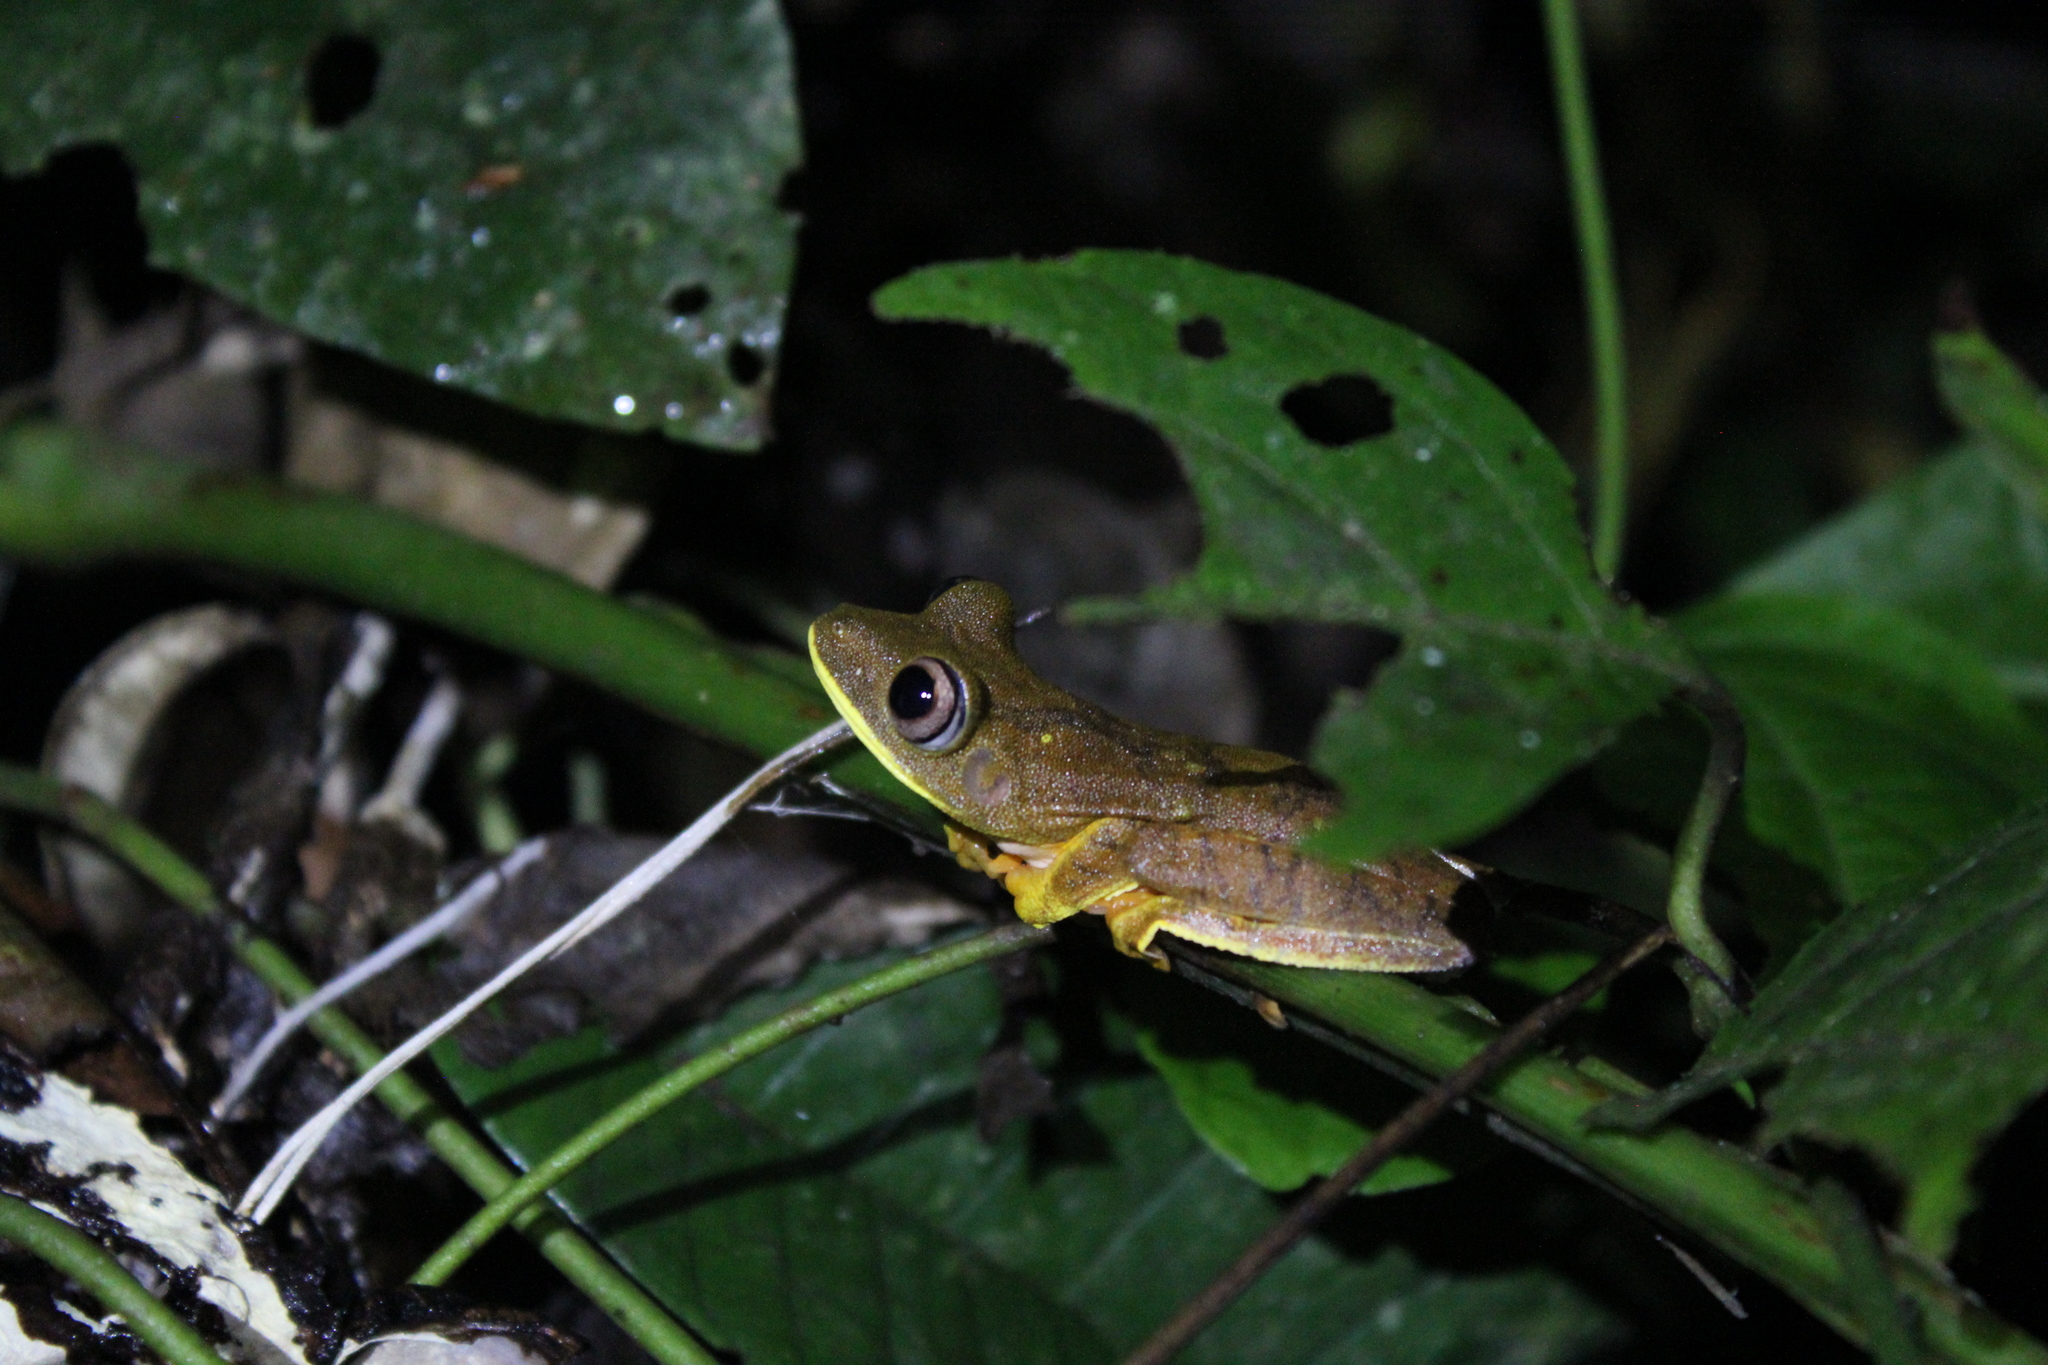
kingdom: Animalia
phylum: Chordata
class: Amphibia
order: Anura
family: Hylidae
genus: Boana
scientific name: Boana geographica
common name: Map treefrog
